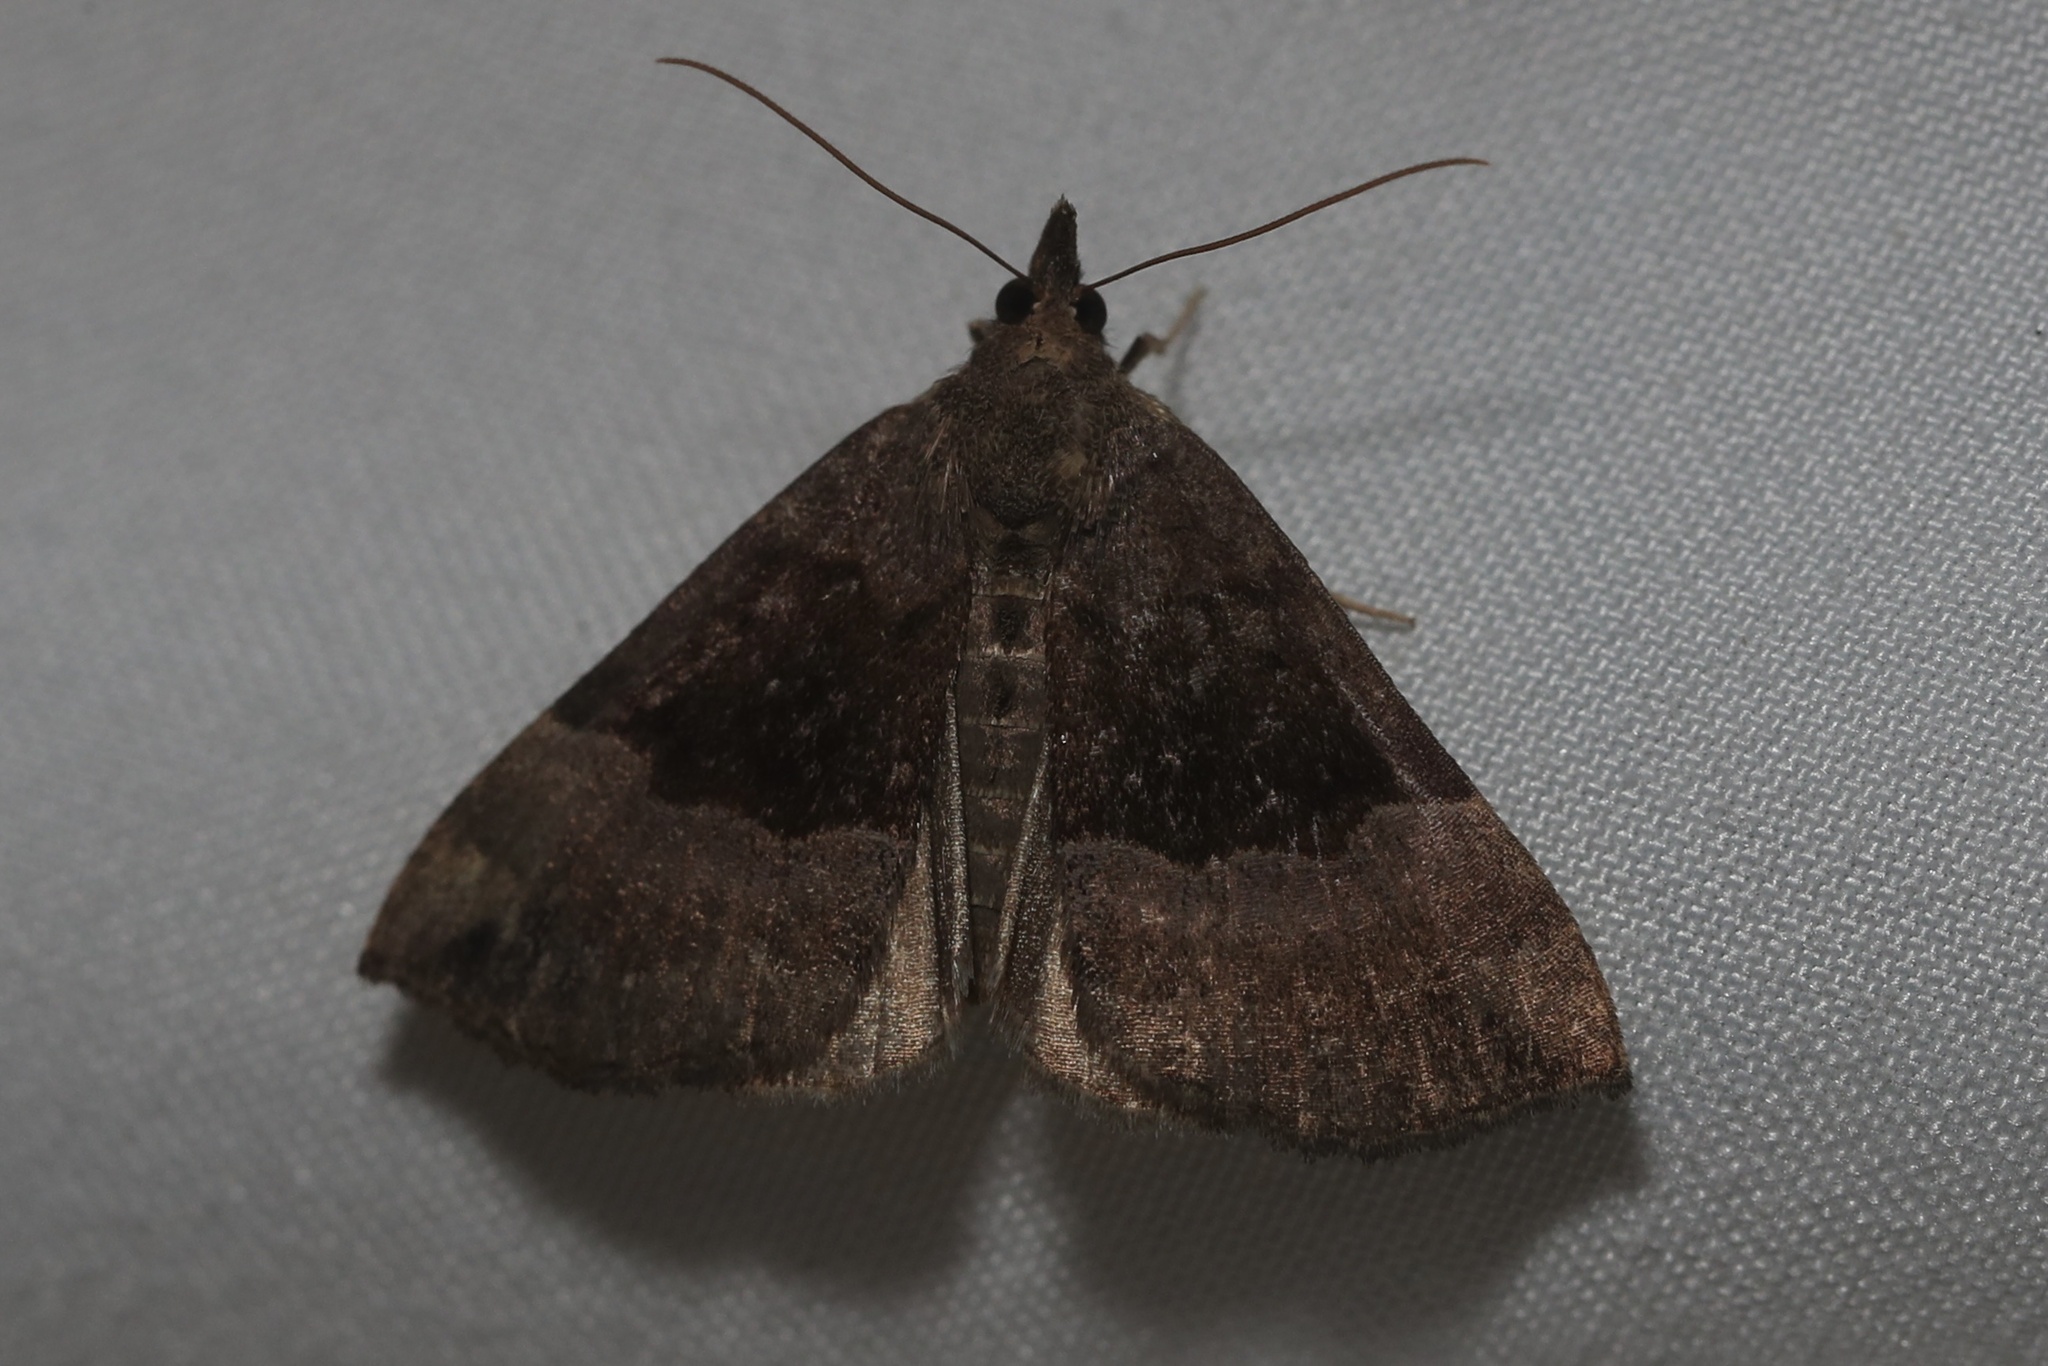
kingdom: Animalia
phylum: Arthropoda
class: Insecta
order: Lepidoptera
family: Erebidae
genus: Hypena
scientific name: Hypena madefactalis
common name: Gray-edged snout
